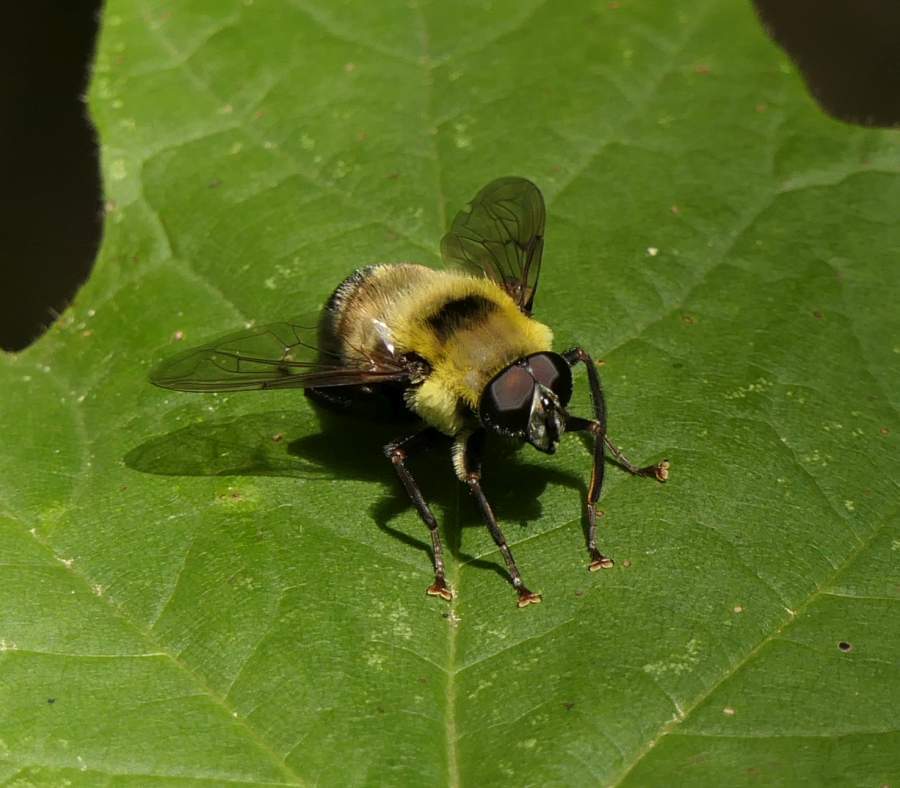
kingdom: Animalia
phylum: Arthropoda
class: Insecta
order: Diptera
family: Syrphidae
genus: Imatisma
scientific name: Imatisma posticata
